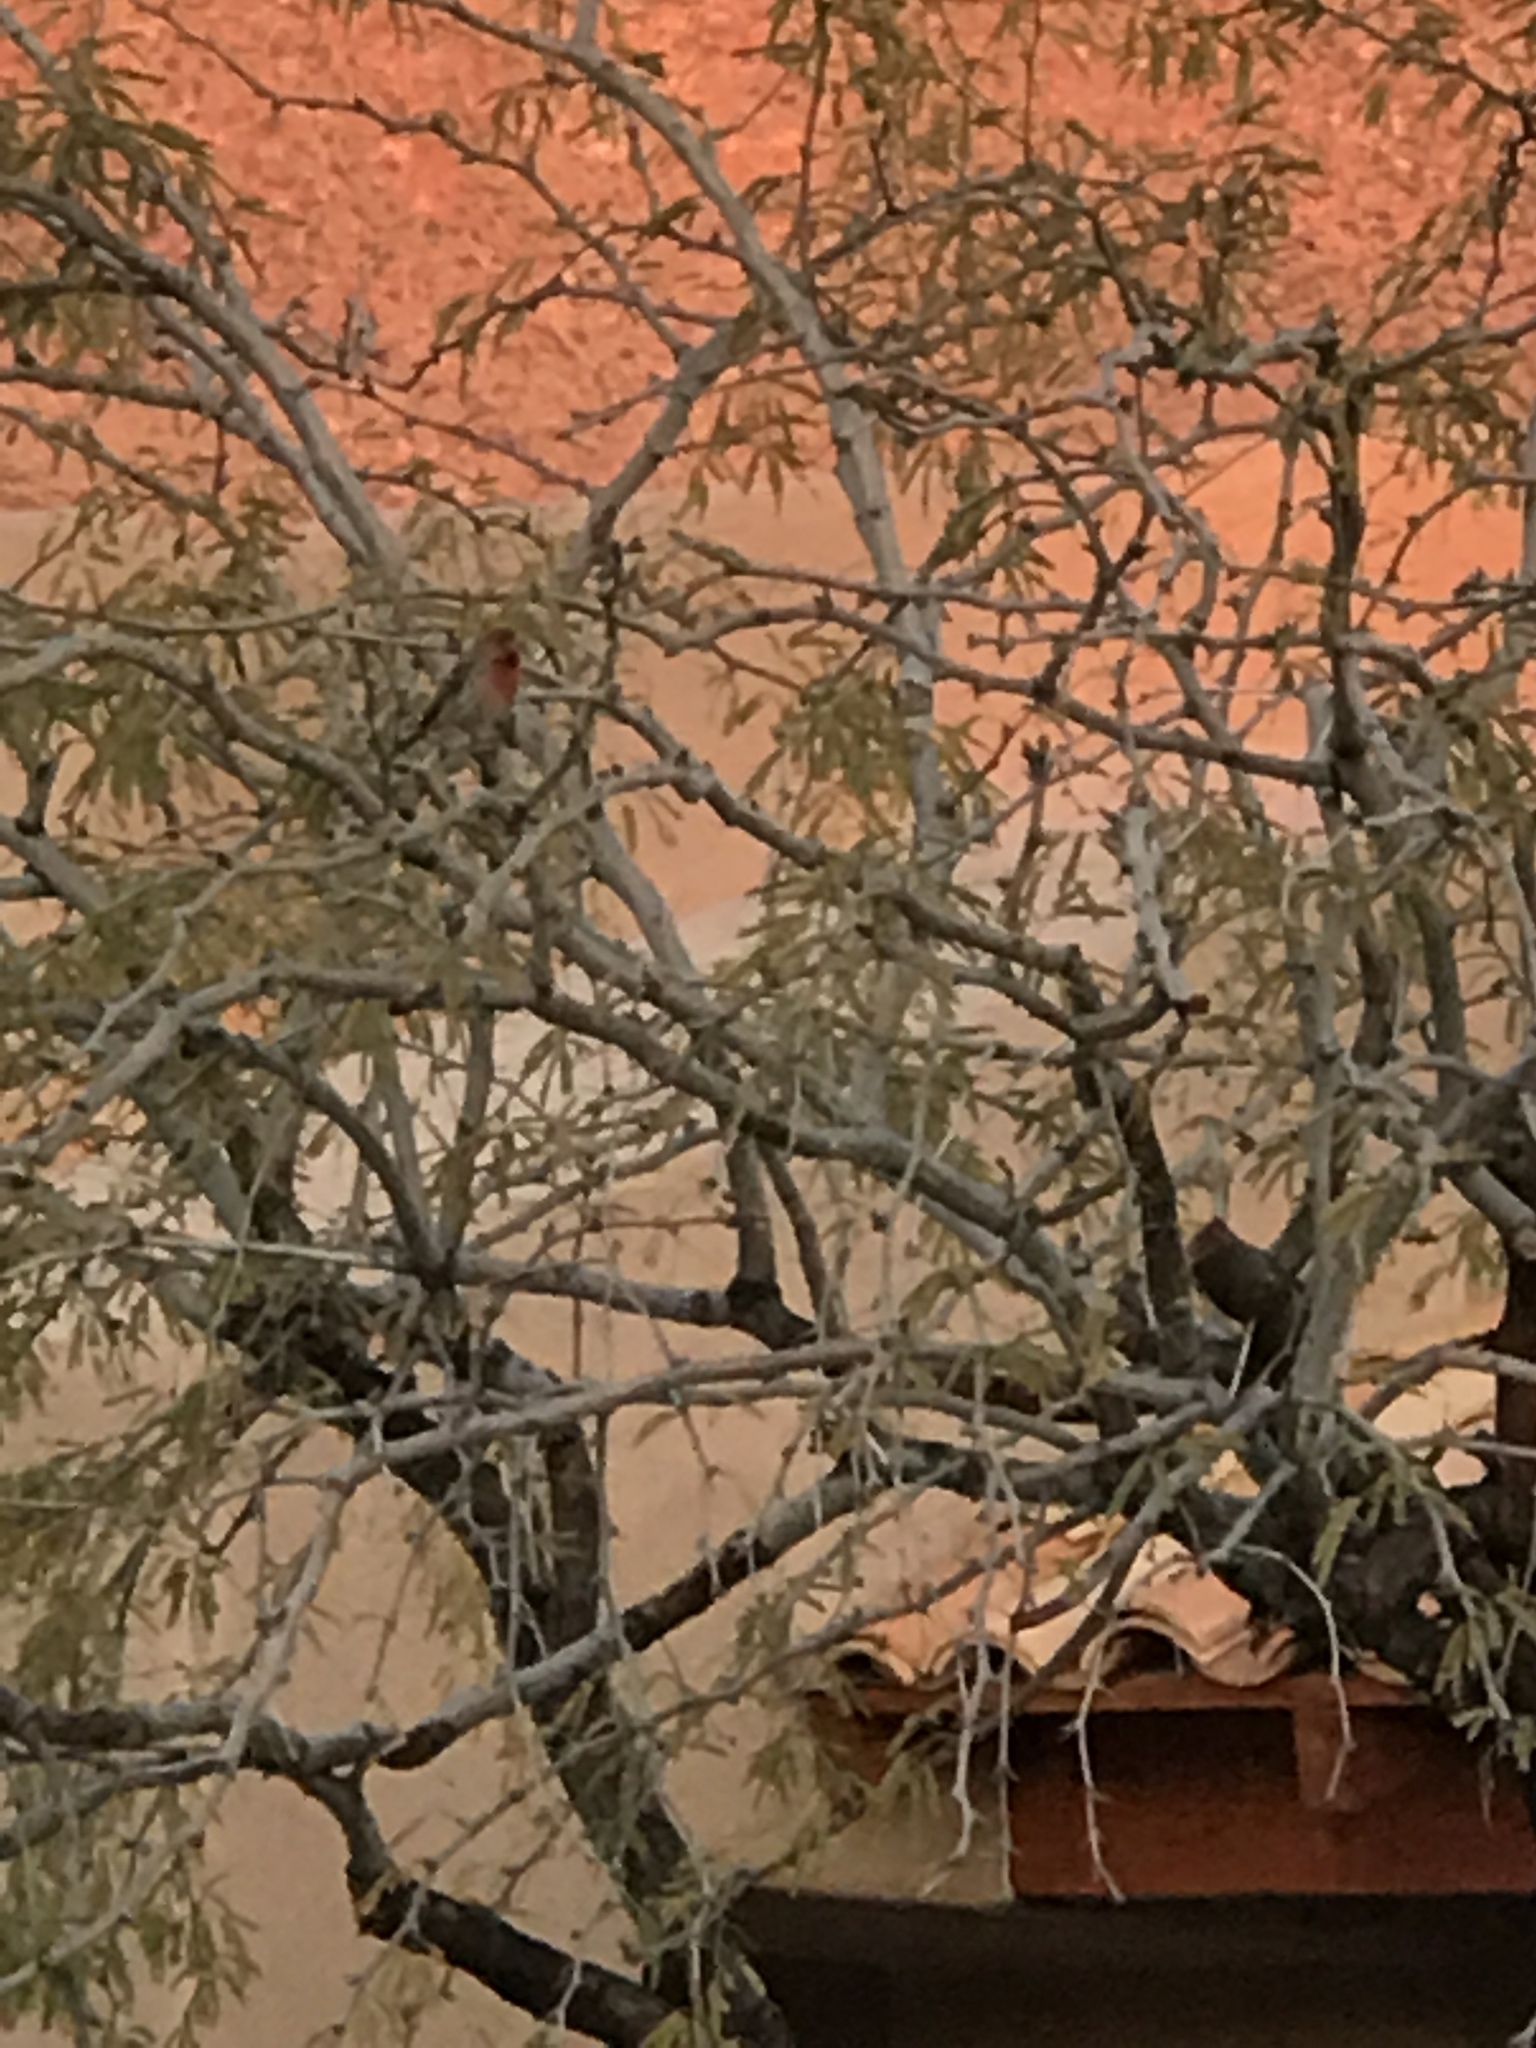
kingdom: Animalia
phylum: Chordata
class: Aves
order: Passeriformes
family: Fringillidae
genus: Haemorhous
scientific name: Haemorhous mexicanus
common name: House finch
